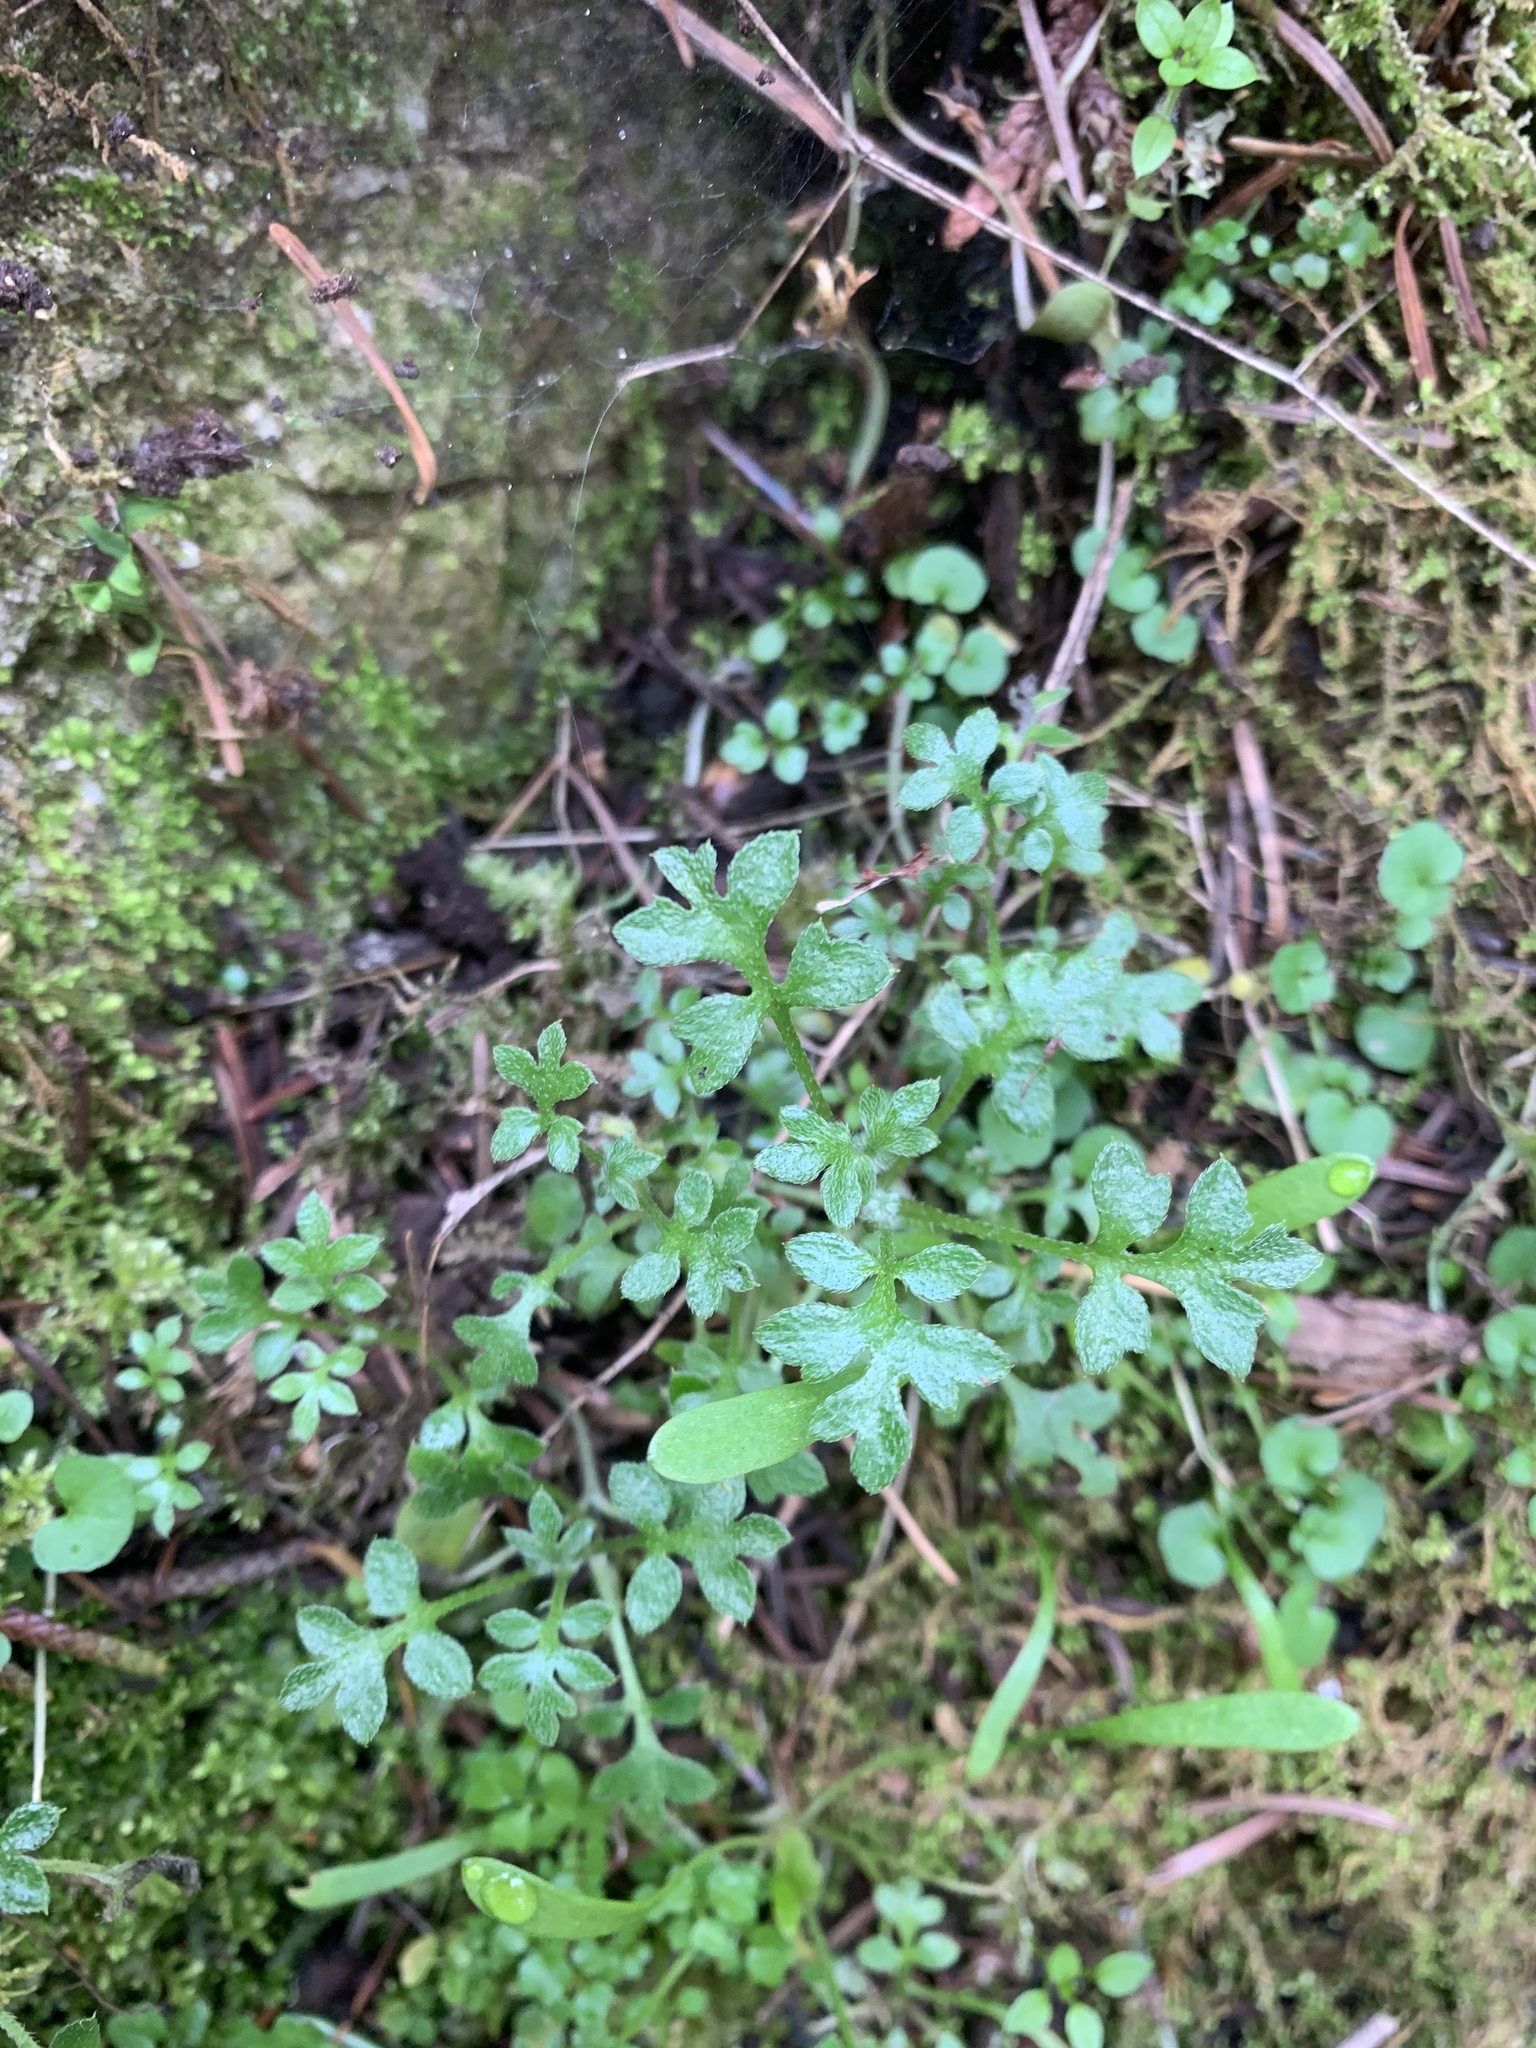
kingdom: Plantae
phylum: Tracheophyta
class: Magnoliopsida
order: Boraginales
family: Hydrophyllaceae
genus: Nemophila
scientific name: Nemophila parviflora
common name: Small-flowered baby-blue-eyes
